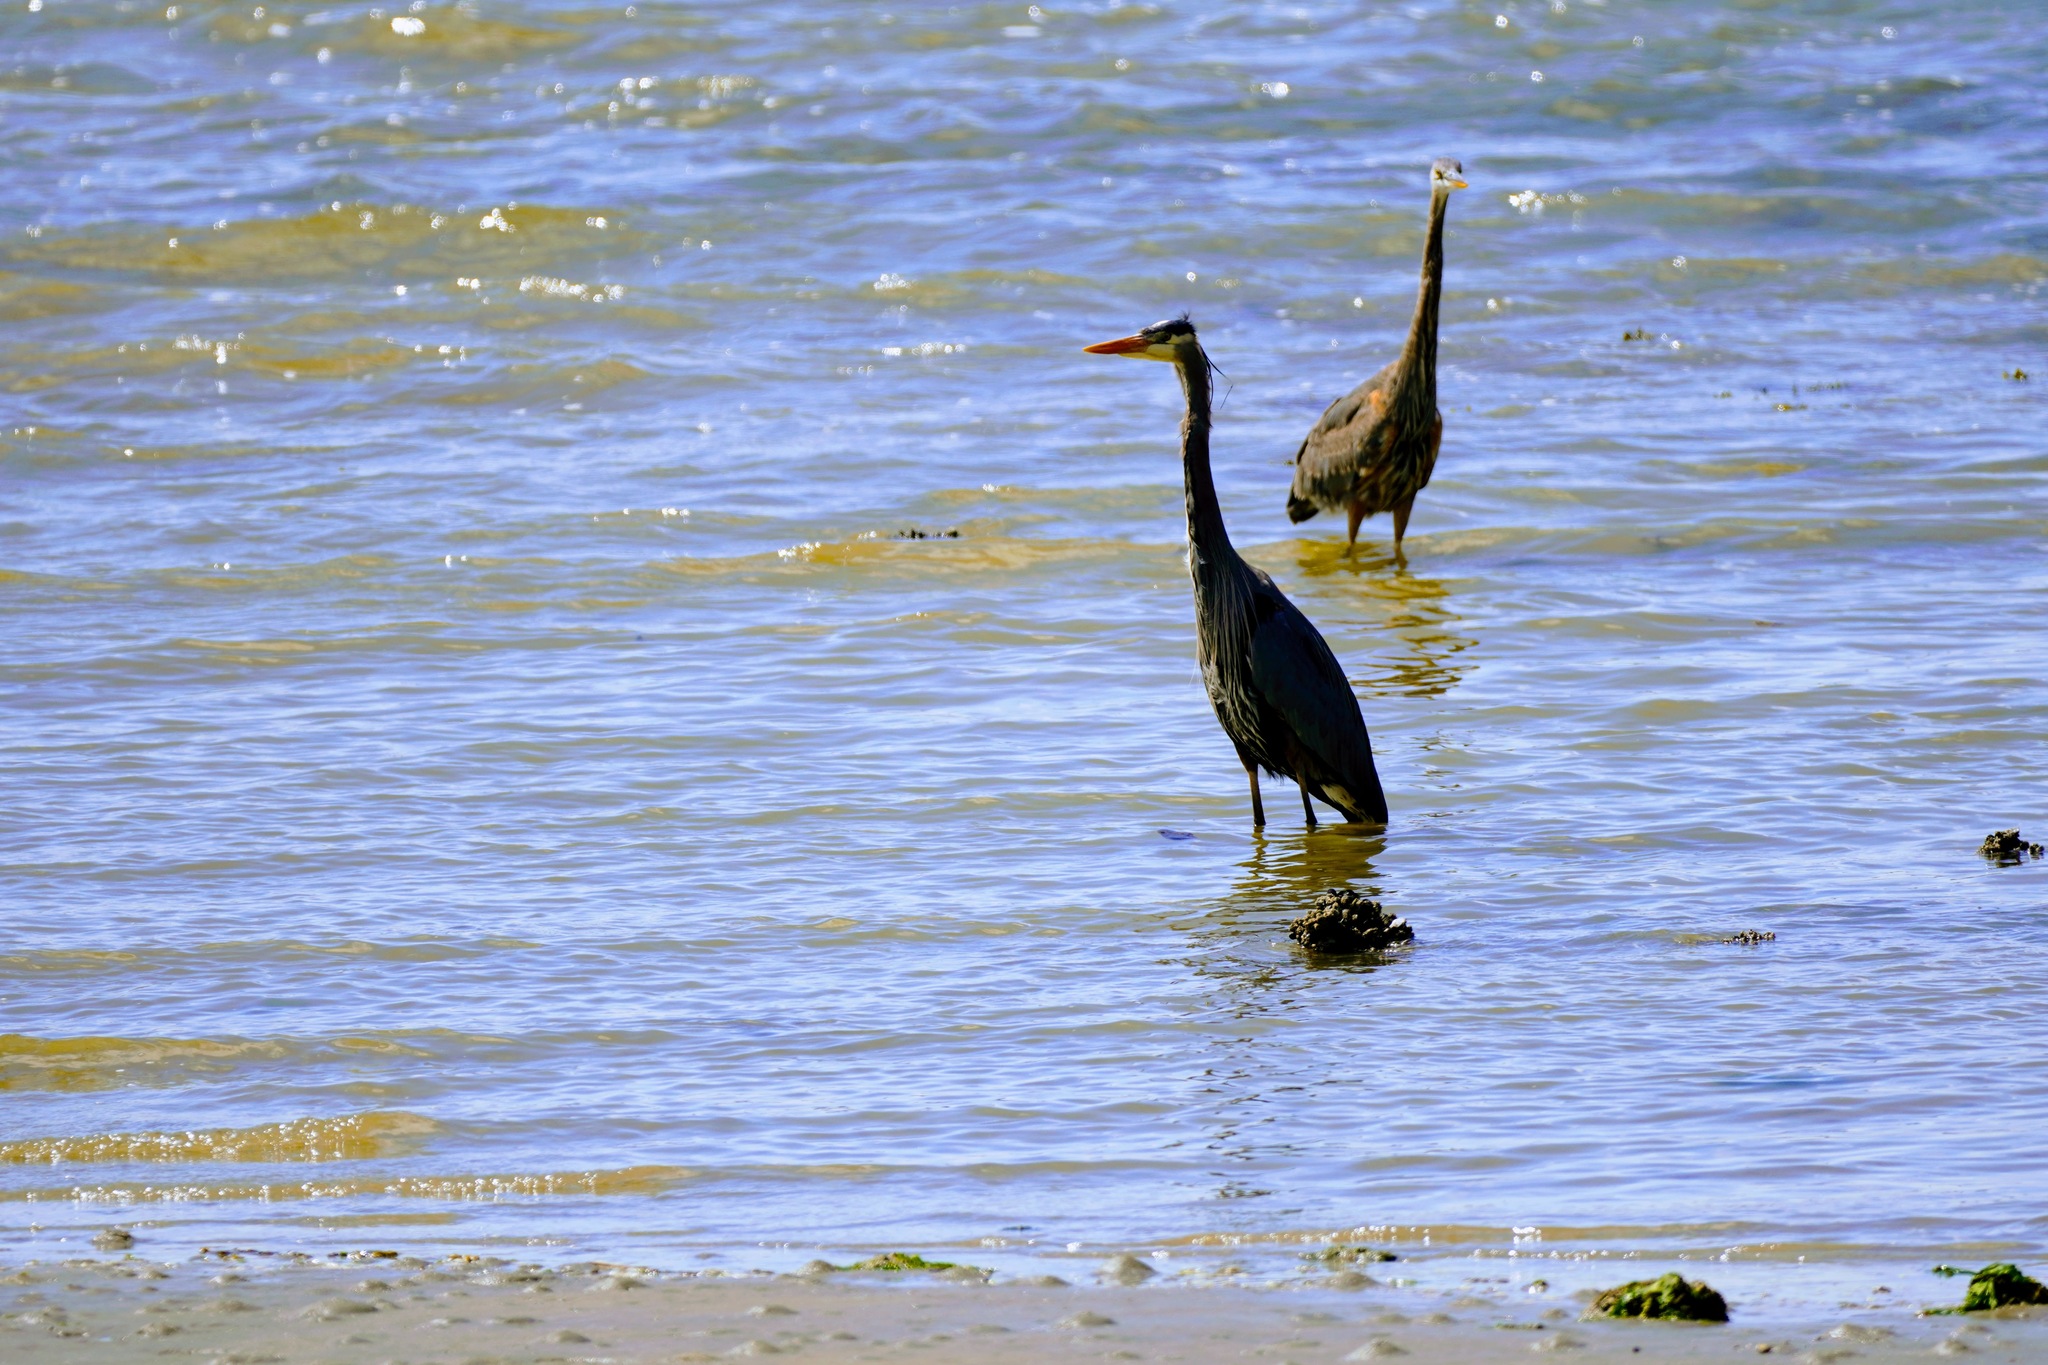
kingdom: Animalia
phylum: Chordata
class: Aves
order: Pelecaniformes
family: Ardeidae
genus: Ardea
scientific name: Ardea herodias
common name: Great blue heron
